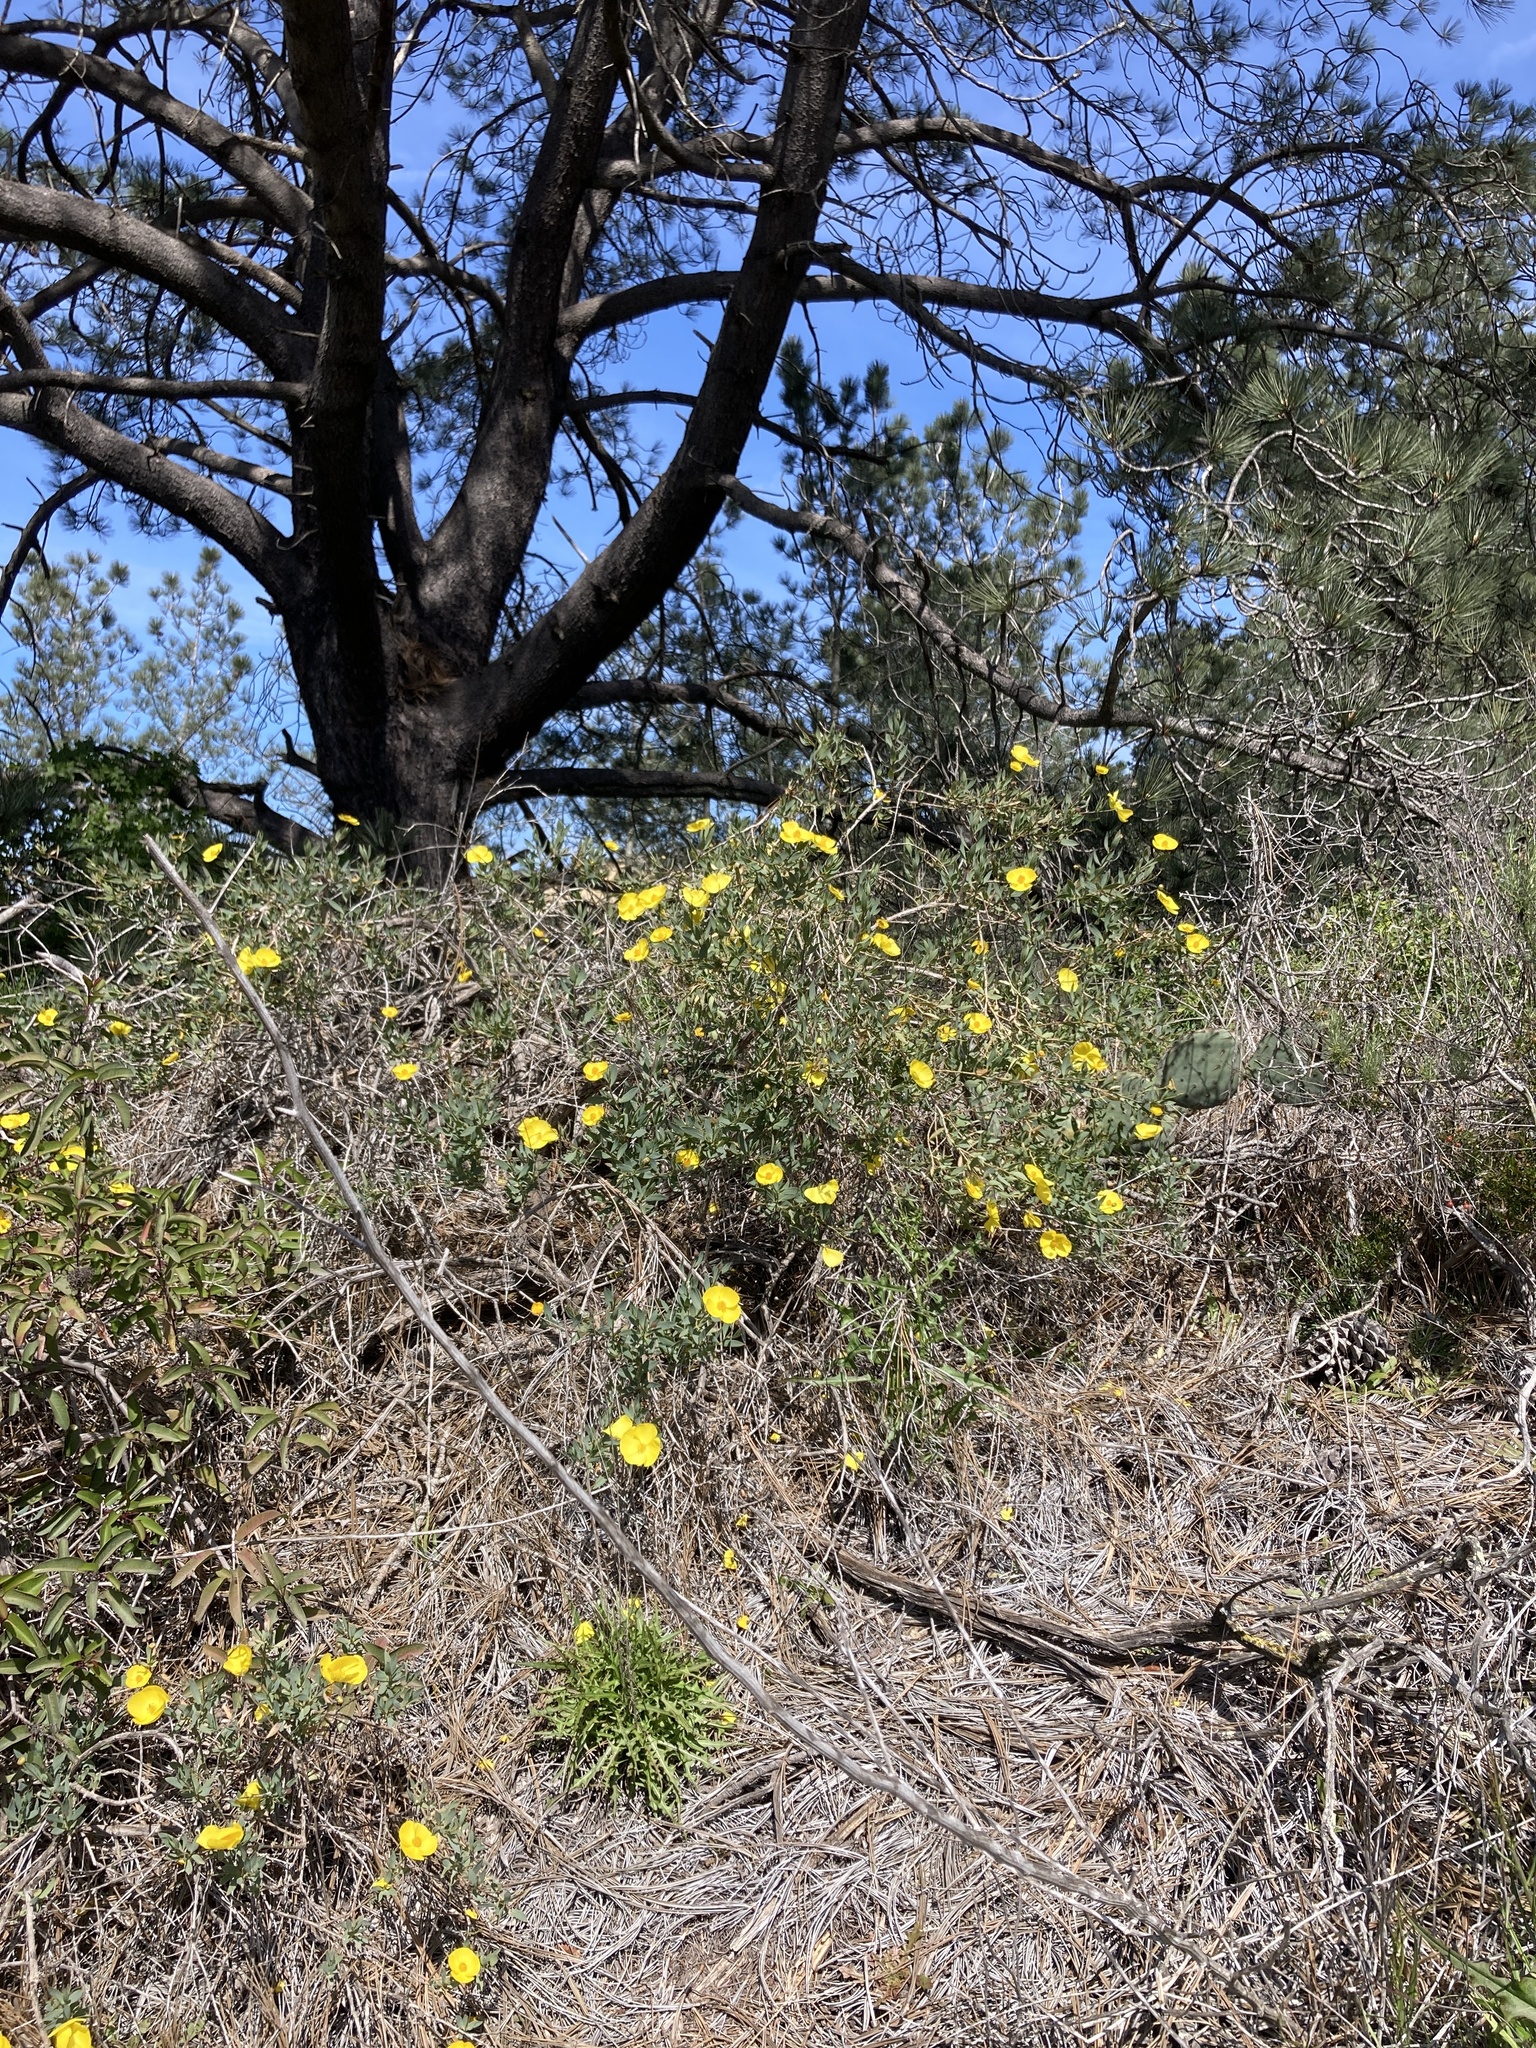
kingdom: Plantae
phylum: Tracheophyta
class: Magnoliopsida
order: Ranunculales
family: Papaveraceae
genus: Dendromecon
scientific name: Dendromecon rigida
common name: Tree poppy
